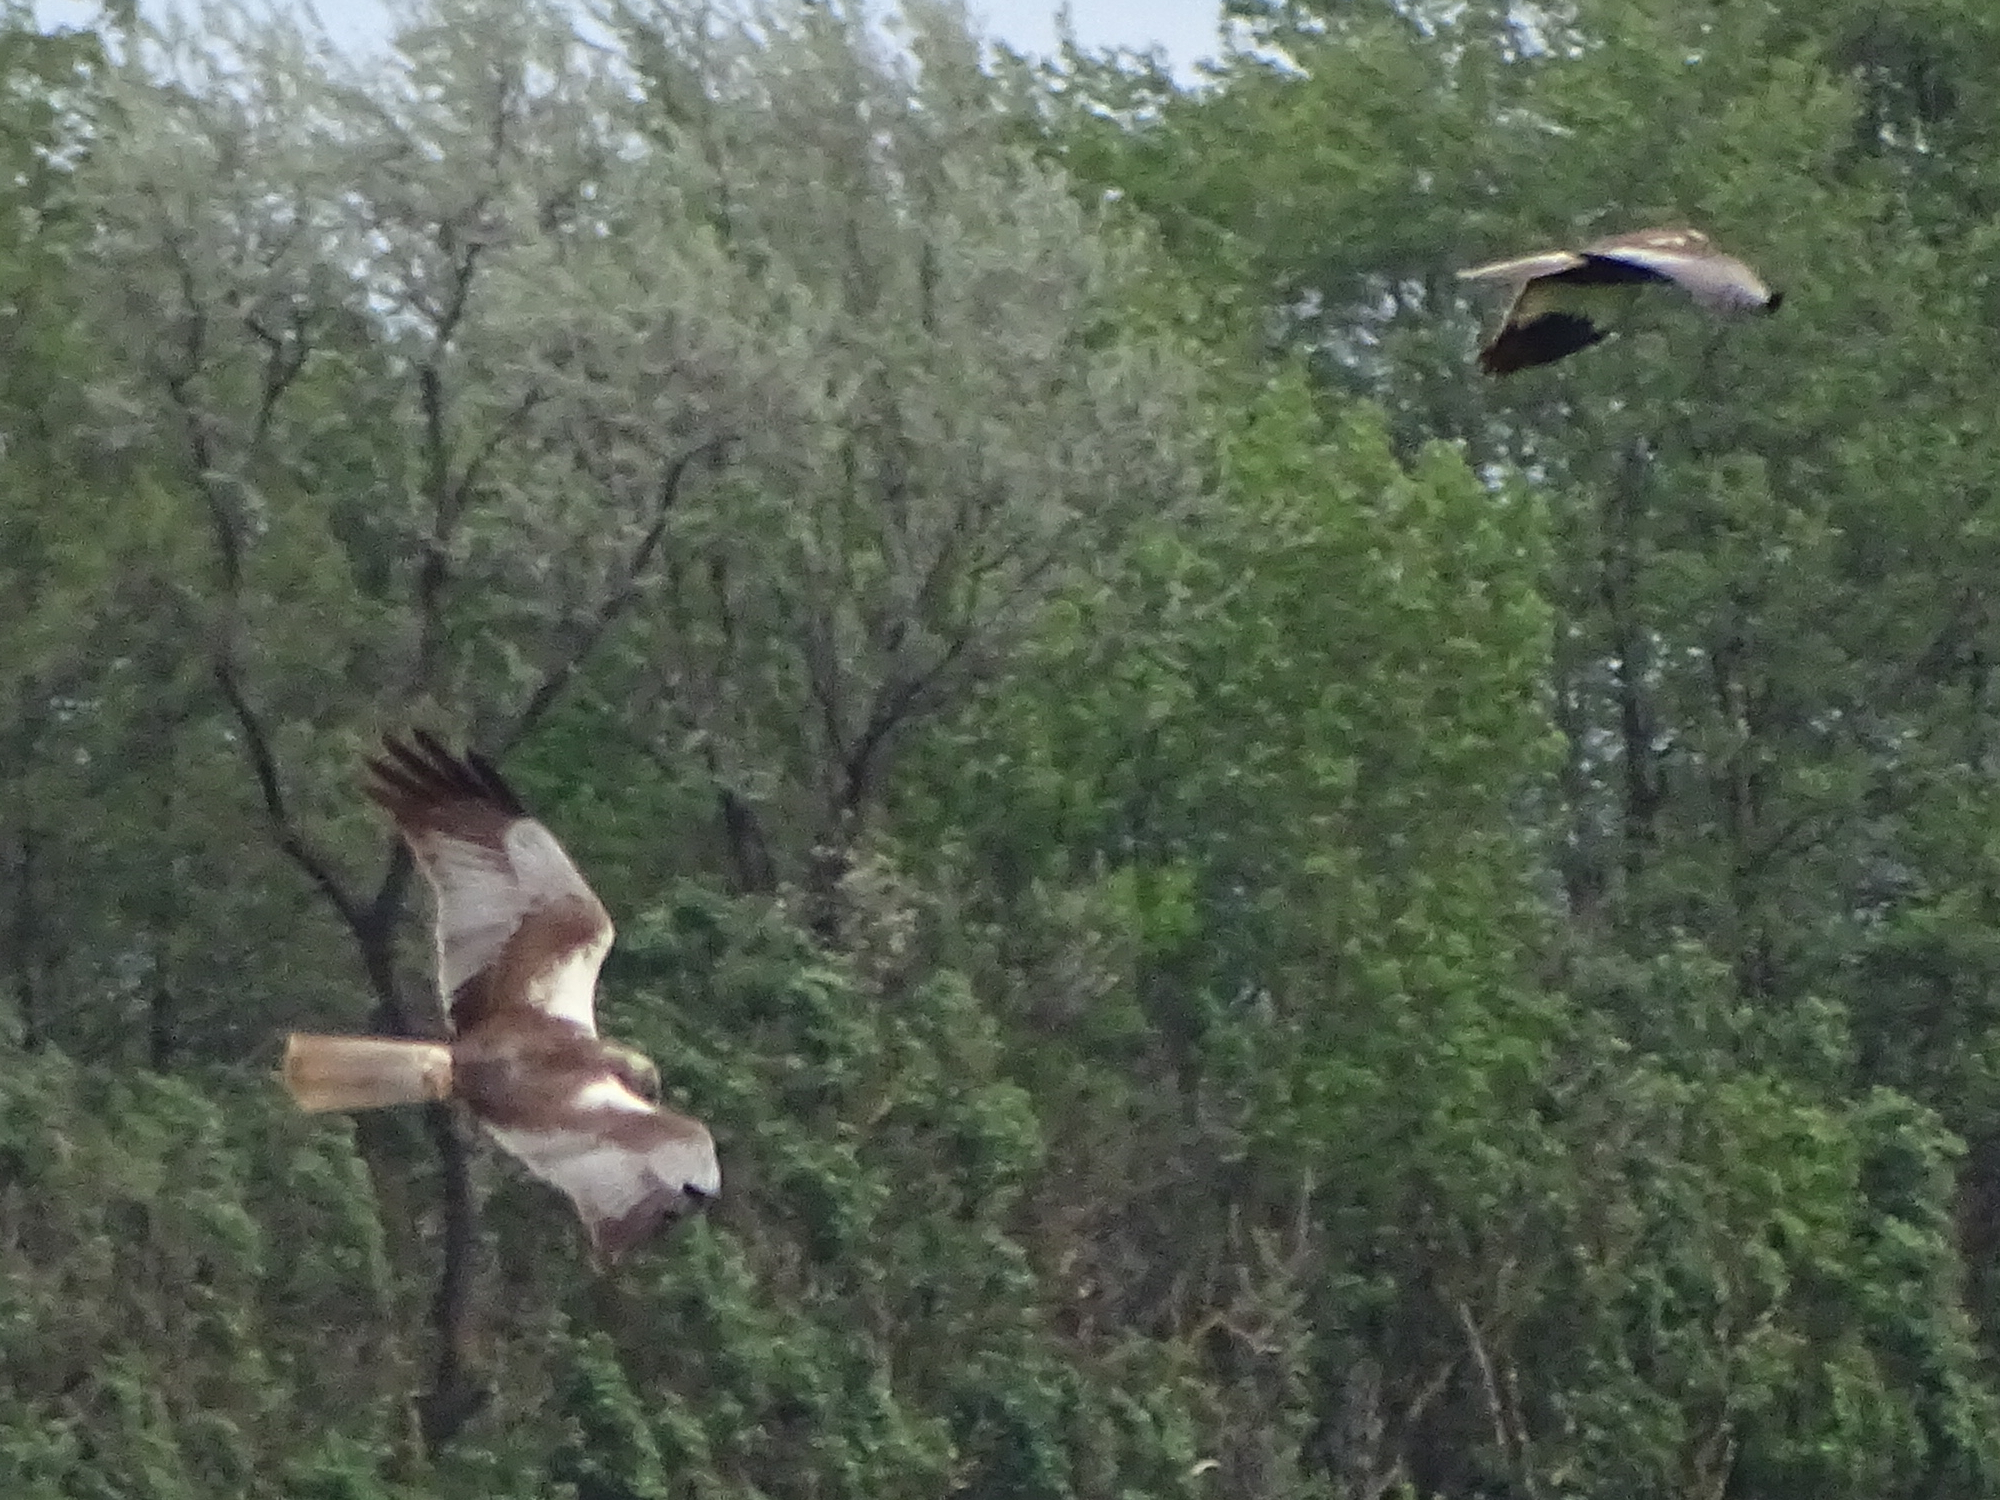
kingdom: Animalia
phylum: Chordata
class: Aves
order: Accipitriformes
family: Accipitridae
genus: Circus
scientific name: Circus aeruginosus
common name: Western marsh harrier
